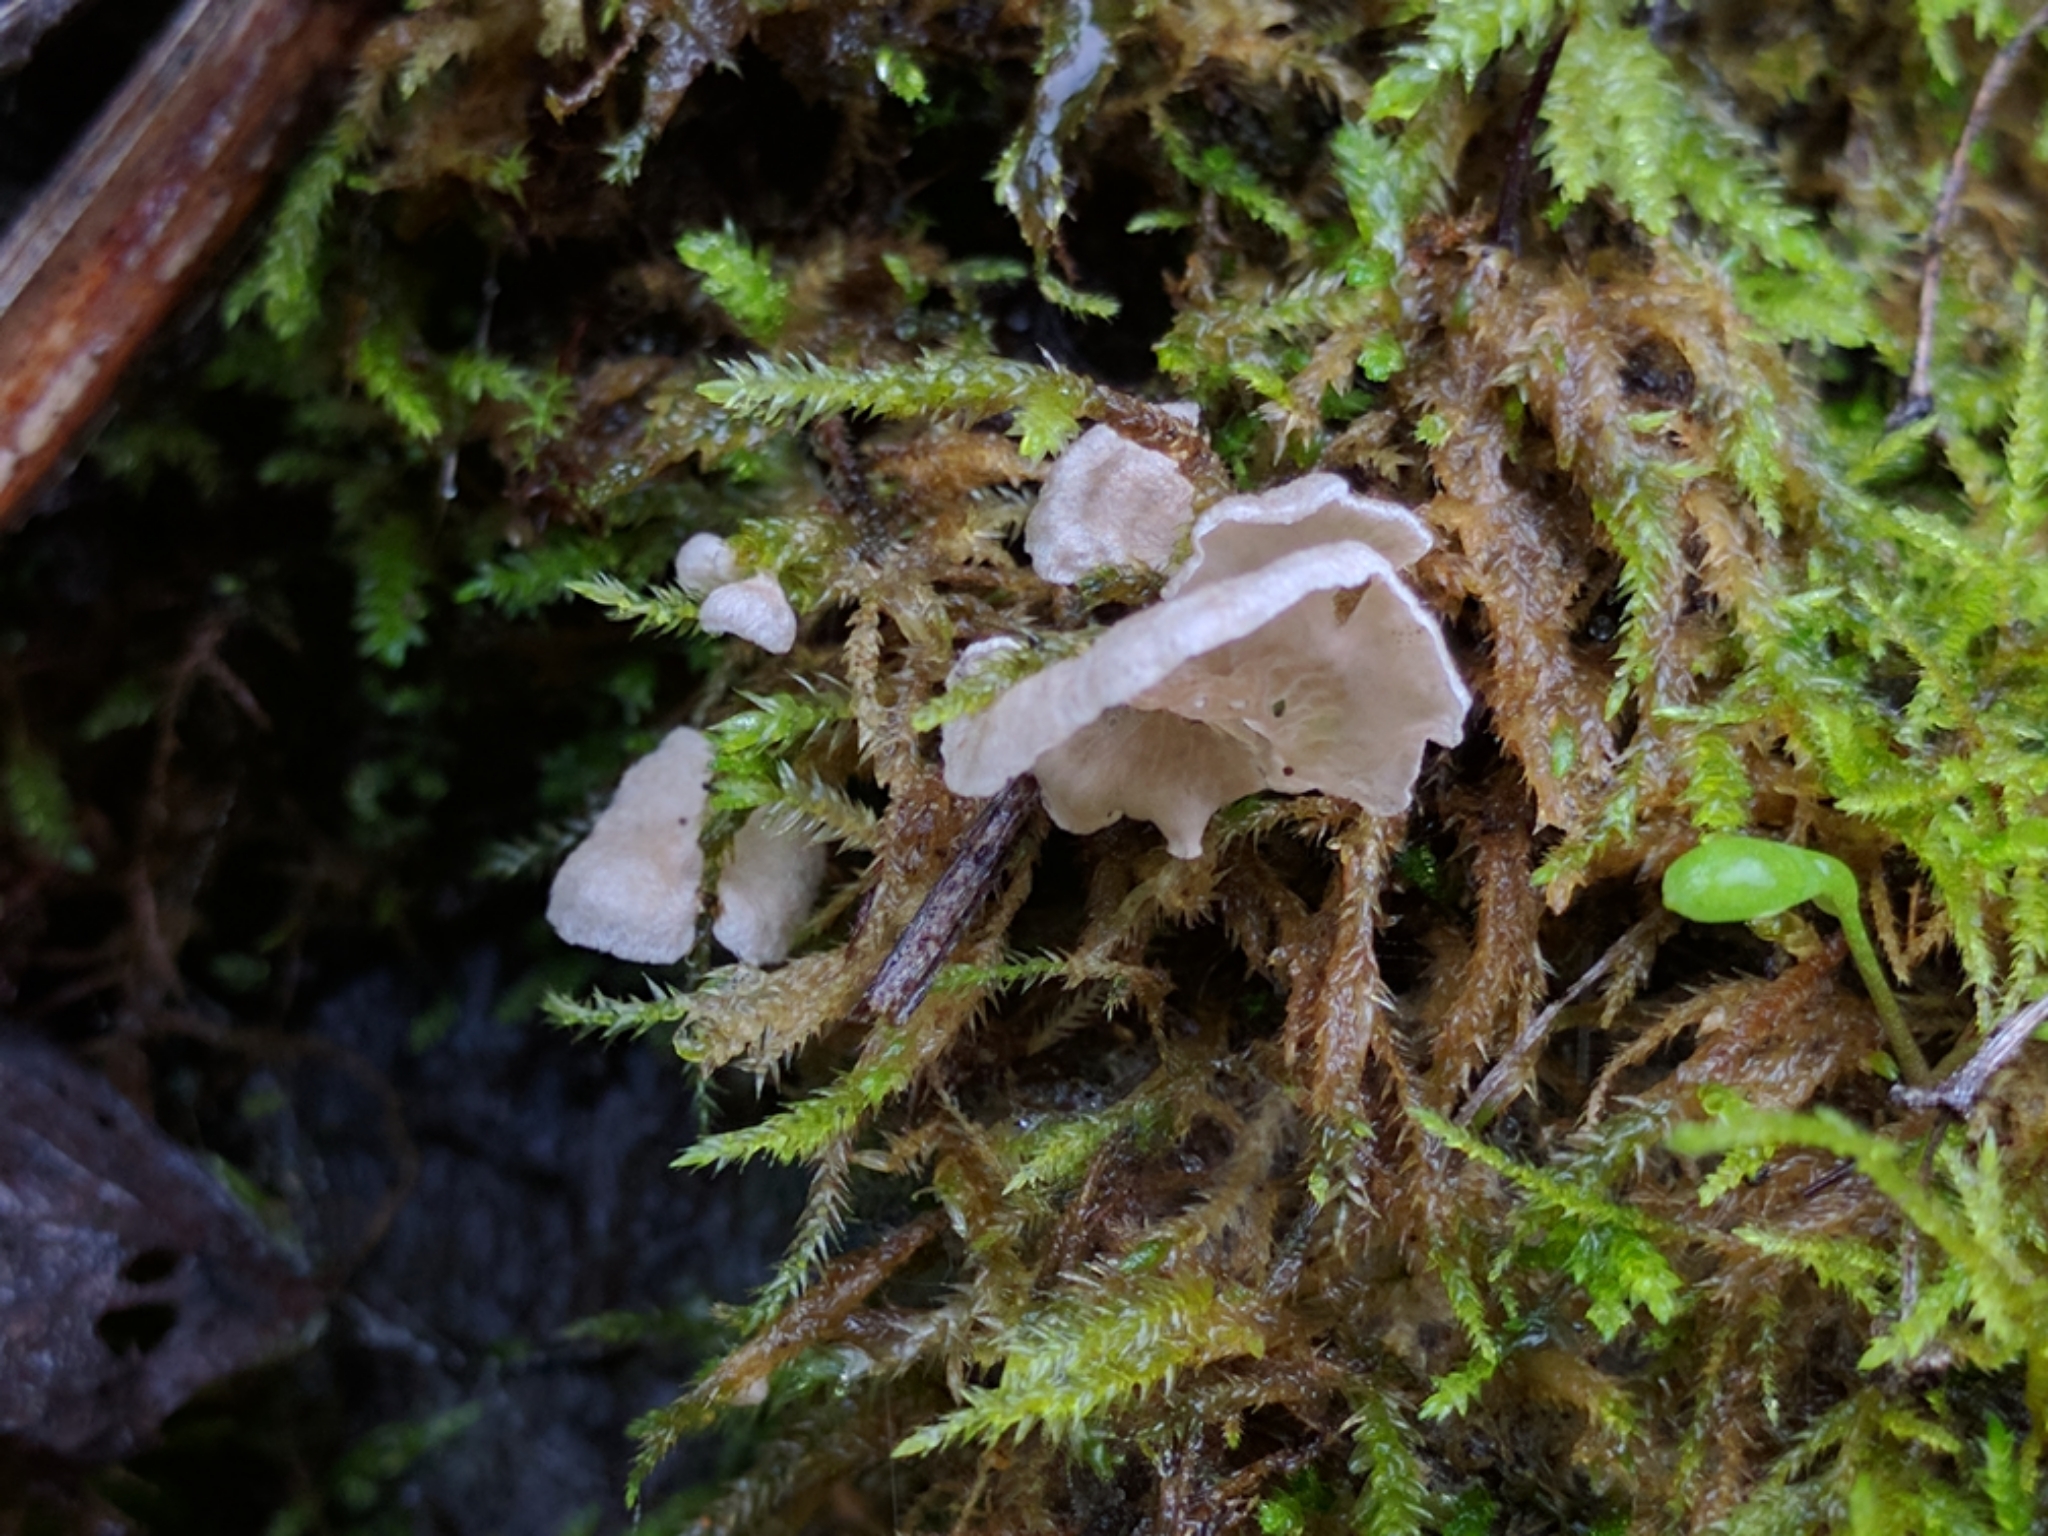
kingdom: Fungi
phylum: Basidiomycota
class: Agaricomycetes
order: Agaricales
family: Hygrophoraceae
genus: Arrhenia
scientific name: Arrhenia retiruga
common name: Small moss oysterling
